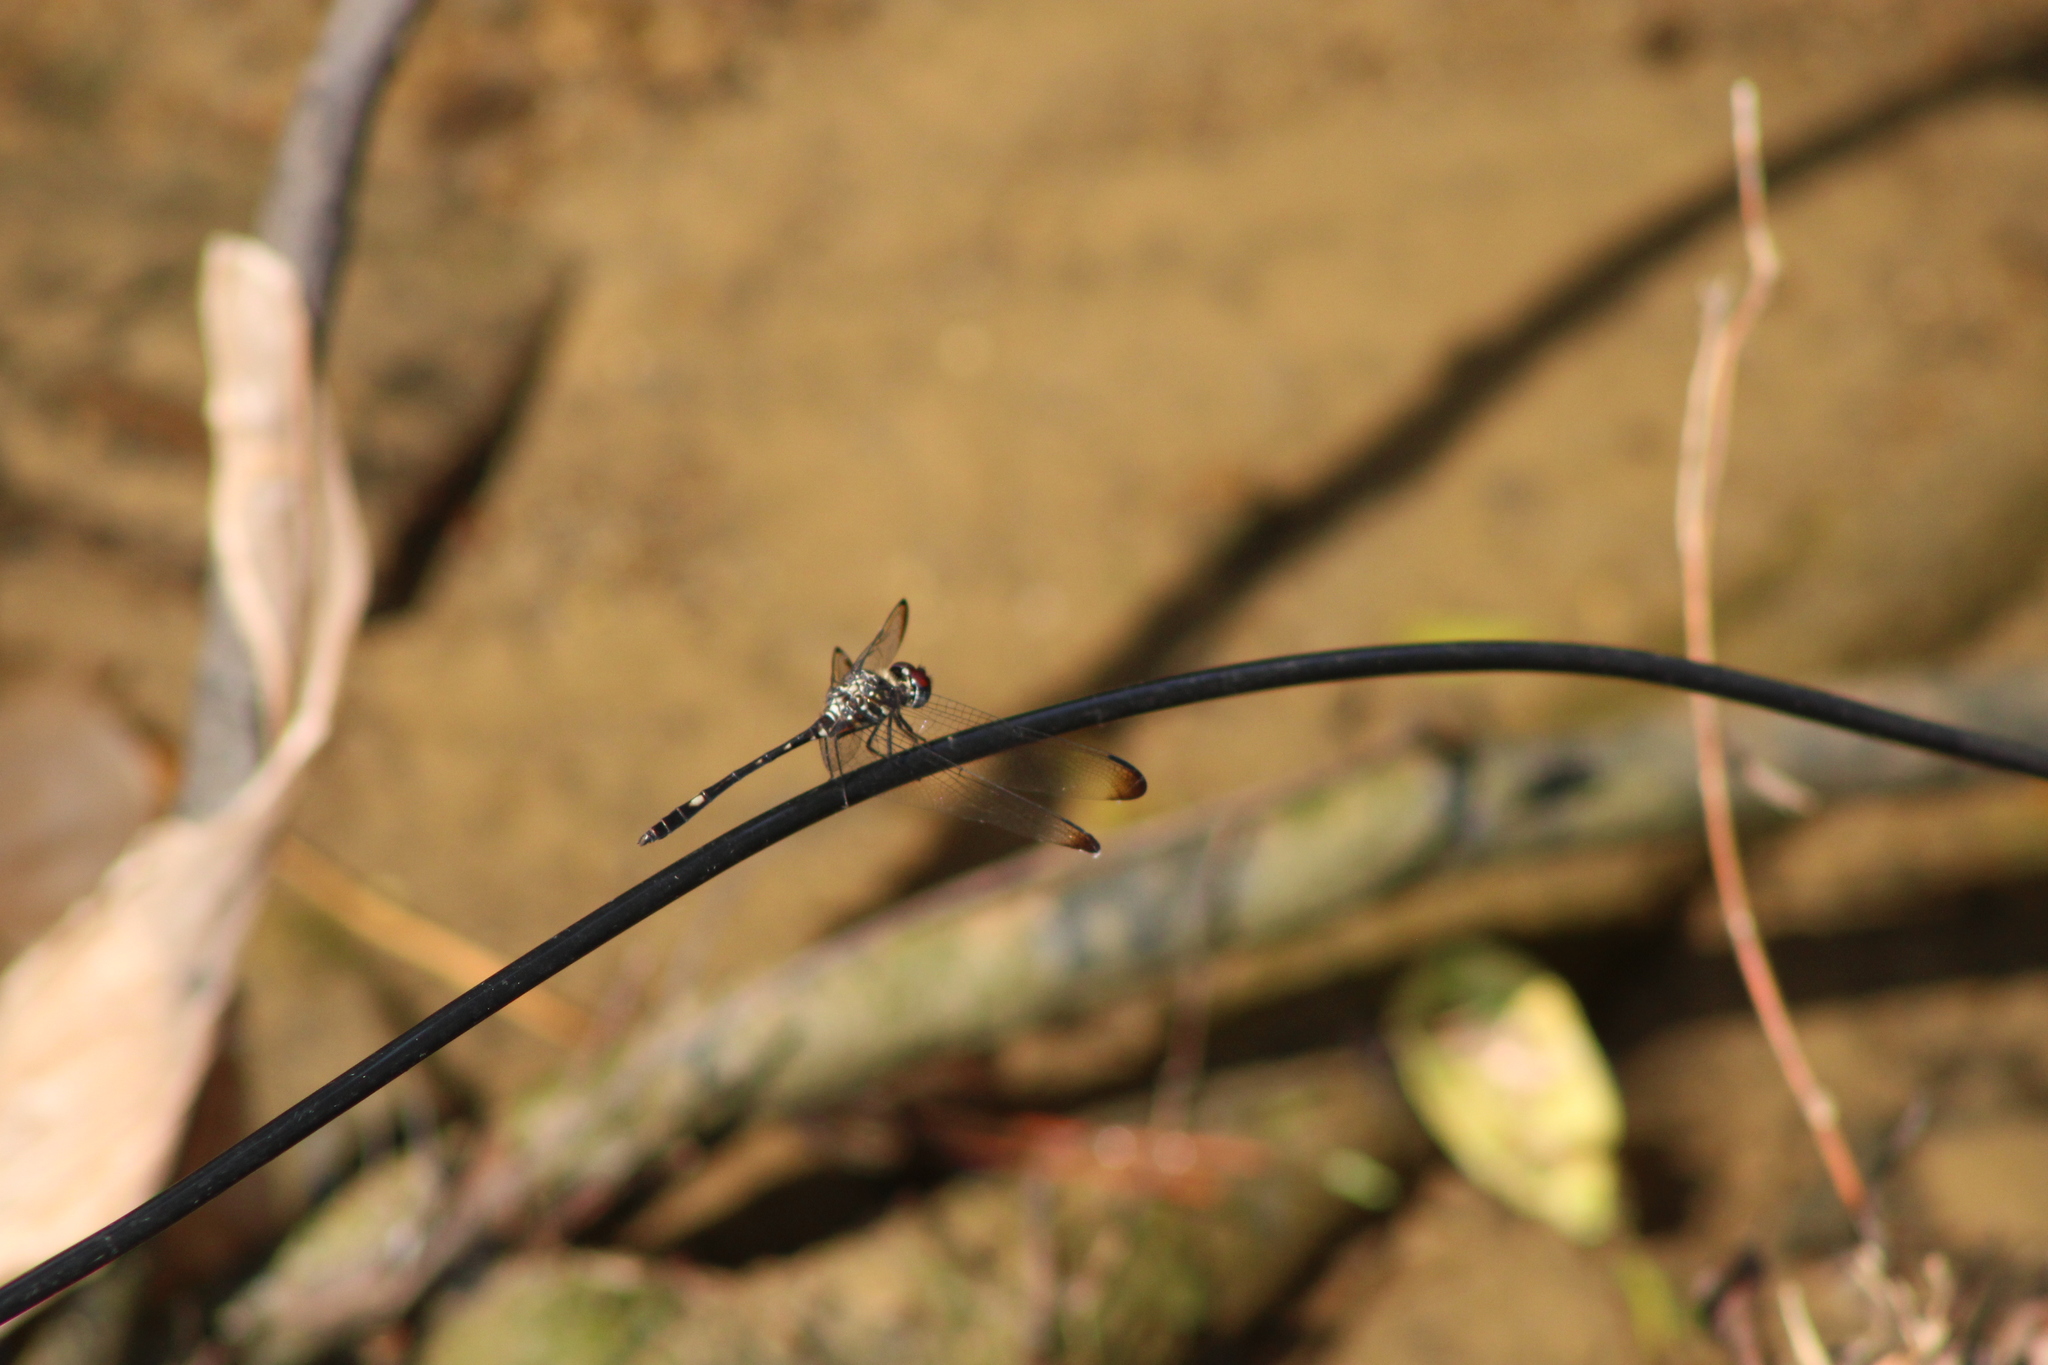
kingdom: Animalia
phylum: Arthropoda
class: Insecta
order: Odonata
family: Libellulidae
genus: Dythemis
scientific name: Dythemis velox
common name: Swift setwing
